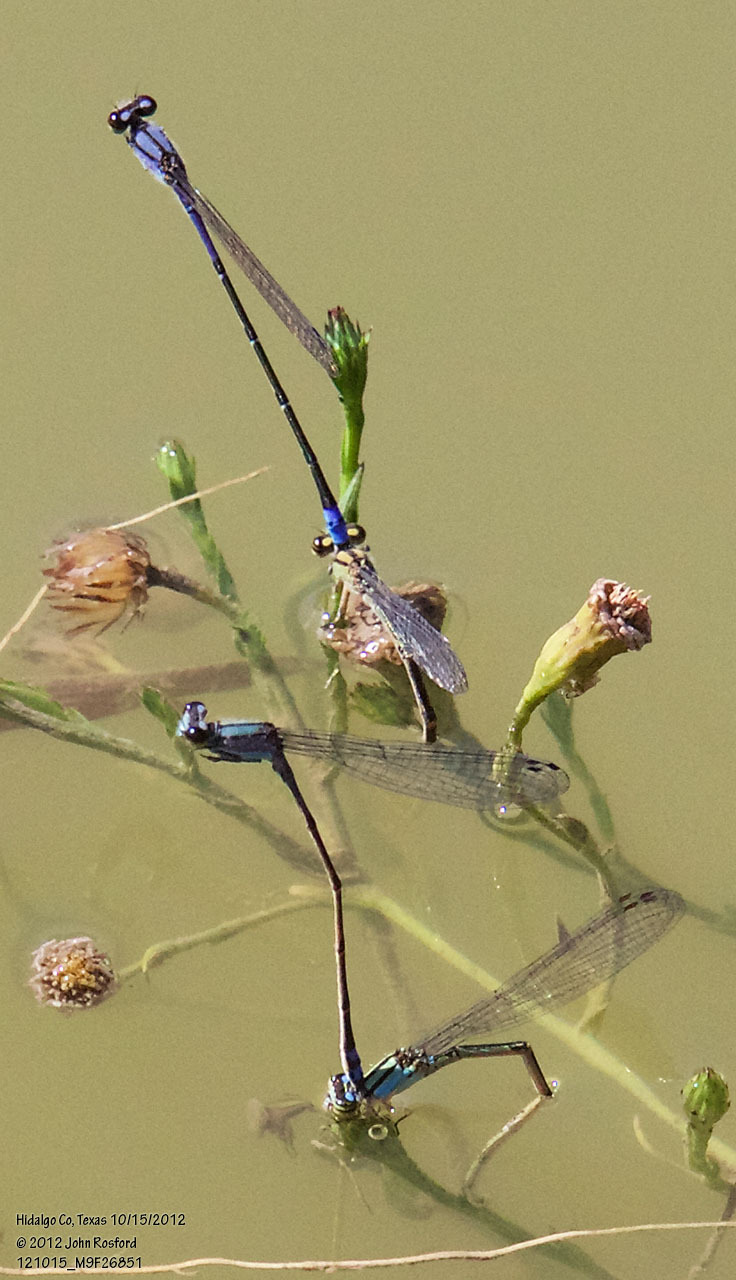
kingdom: Animalia
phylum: Arthropoda
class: Insecta
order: Odonata
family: Coenagrionidae
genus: Enallagma
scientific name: Enallagma novaehispaniae
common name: Neotropical bluet
